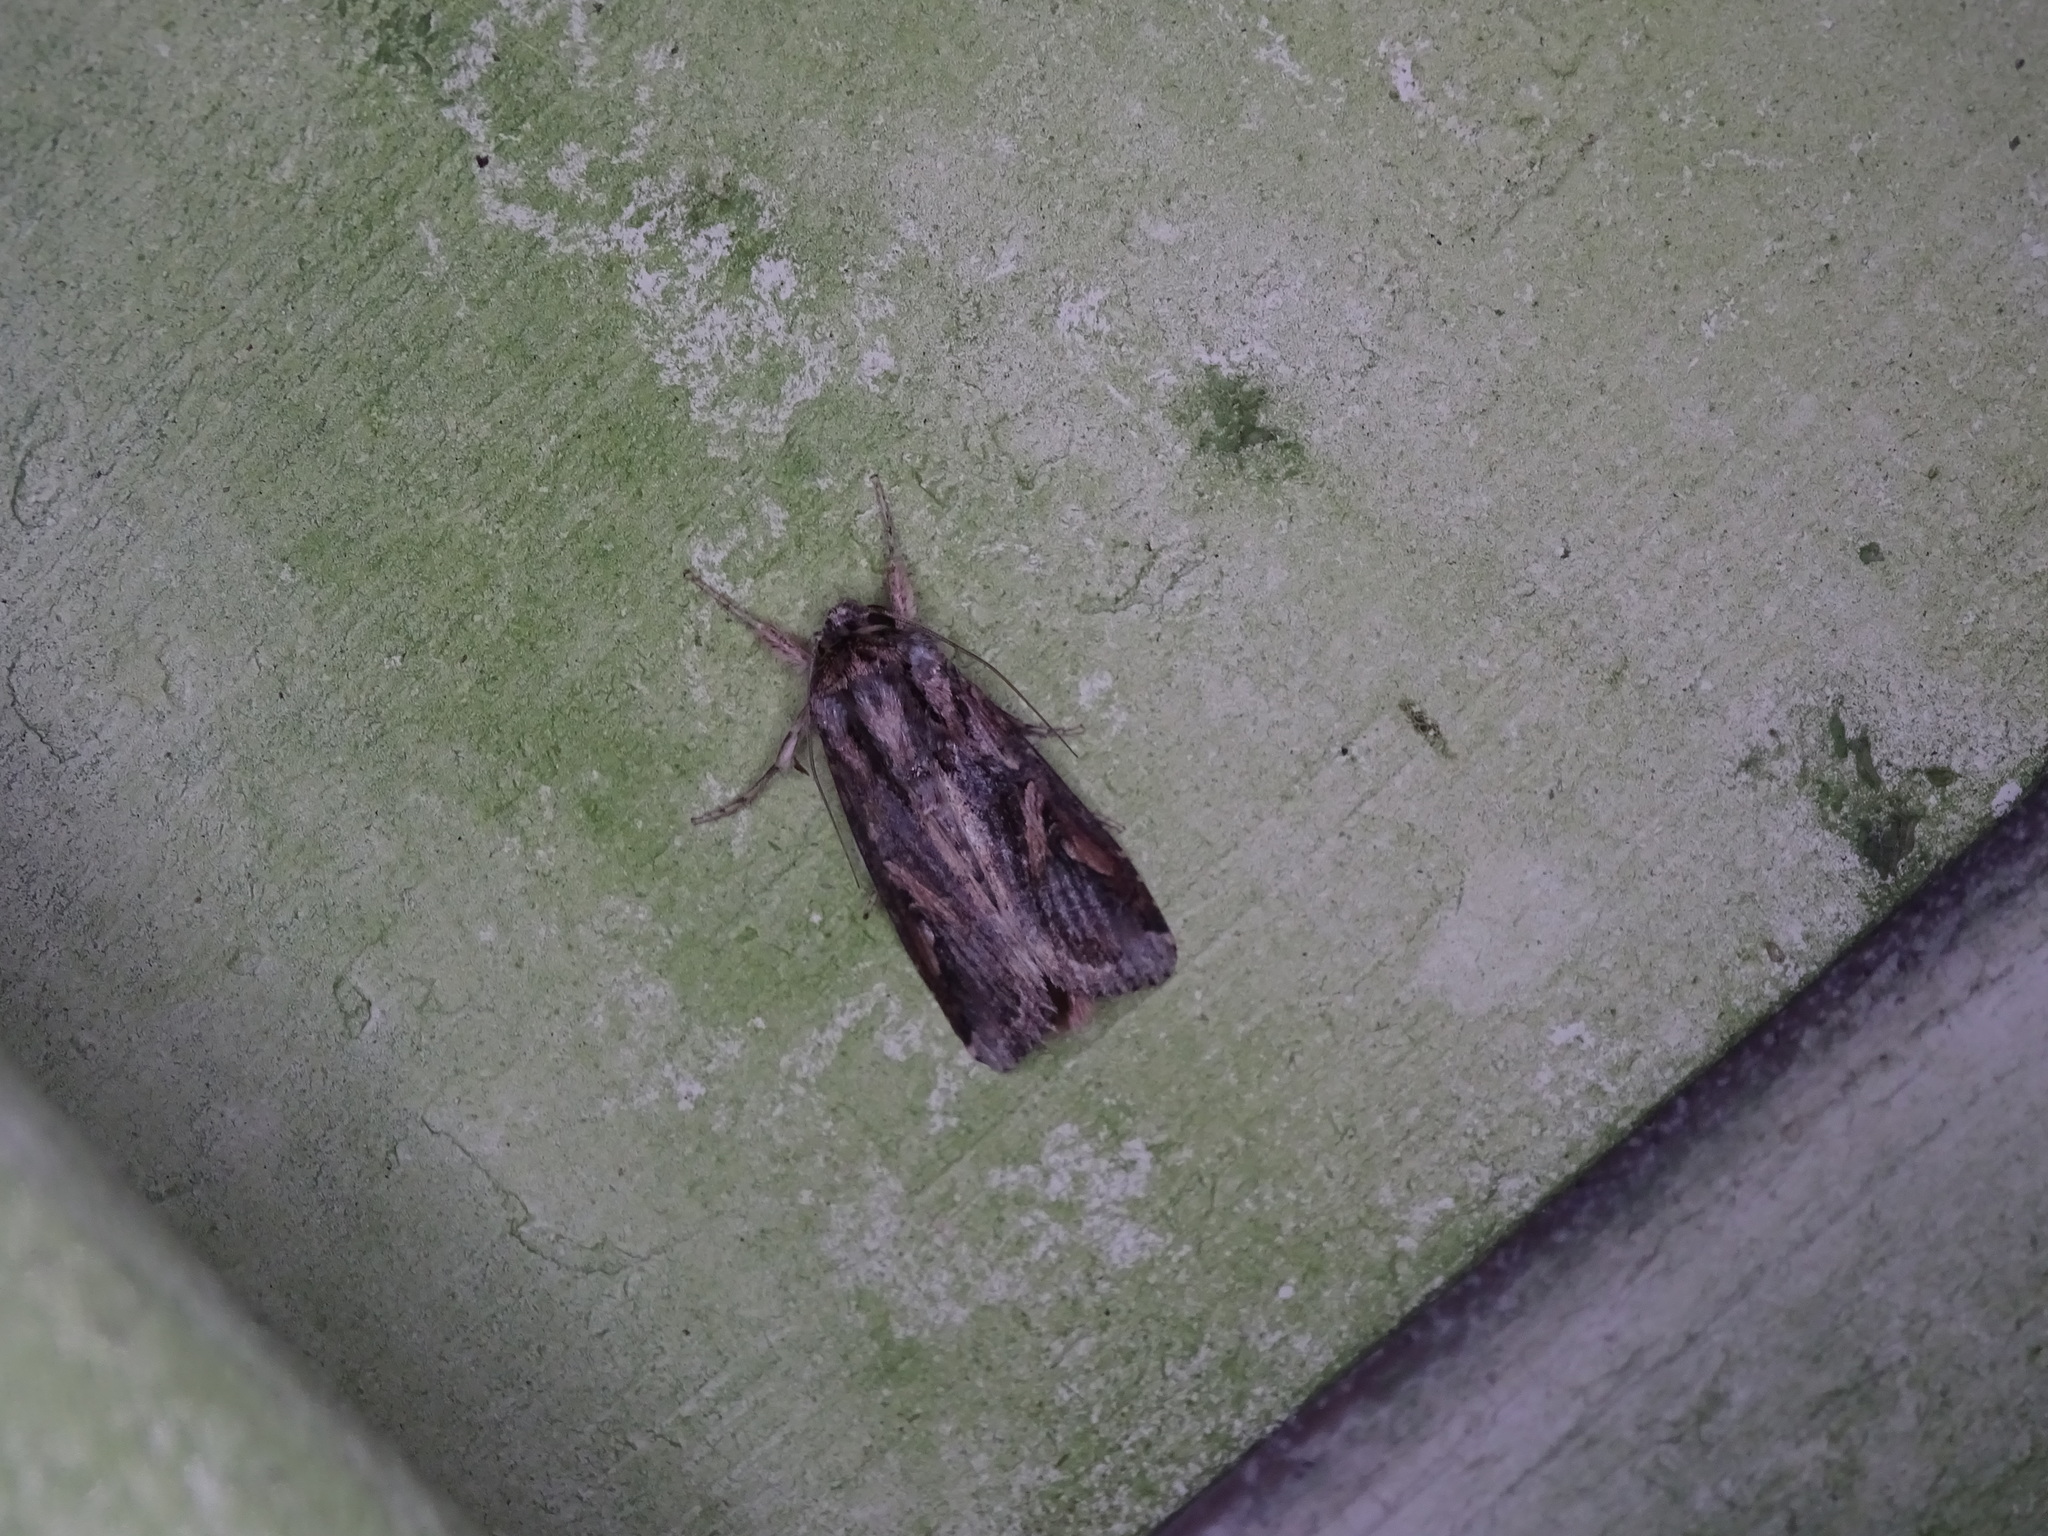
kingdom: Animalia
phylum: Arthropoda
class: Insecta
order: Lepidoptera
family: Noctuidae
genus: Spodoptera
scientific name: Spodoptera dolichos
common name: Sweetpotato armyworm
